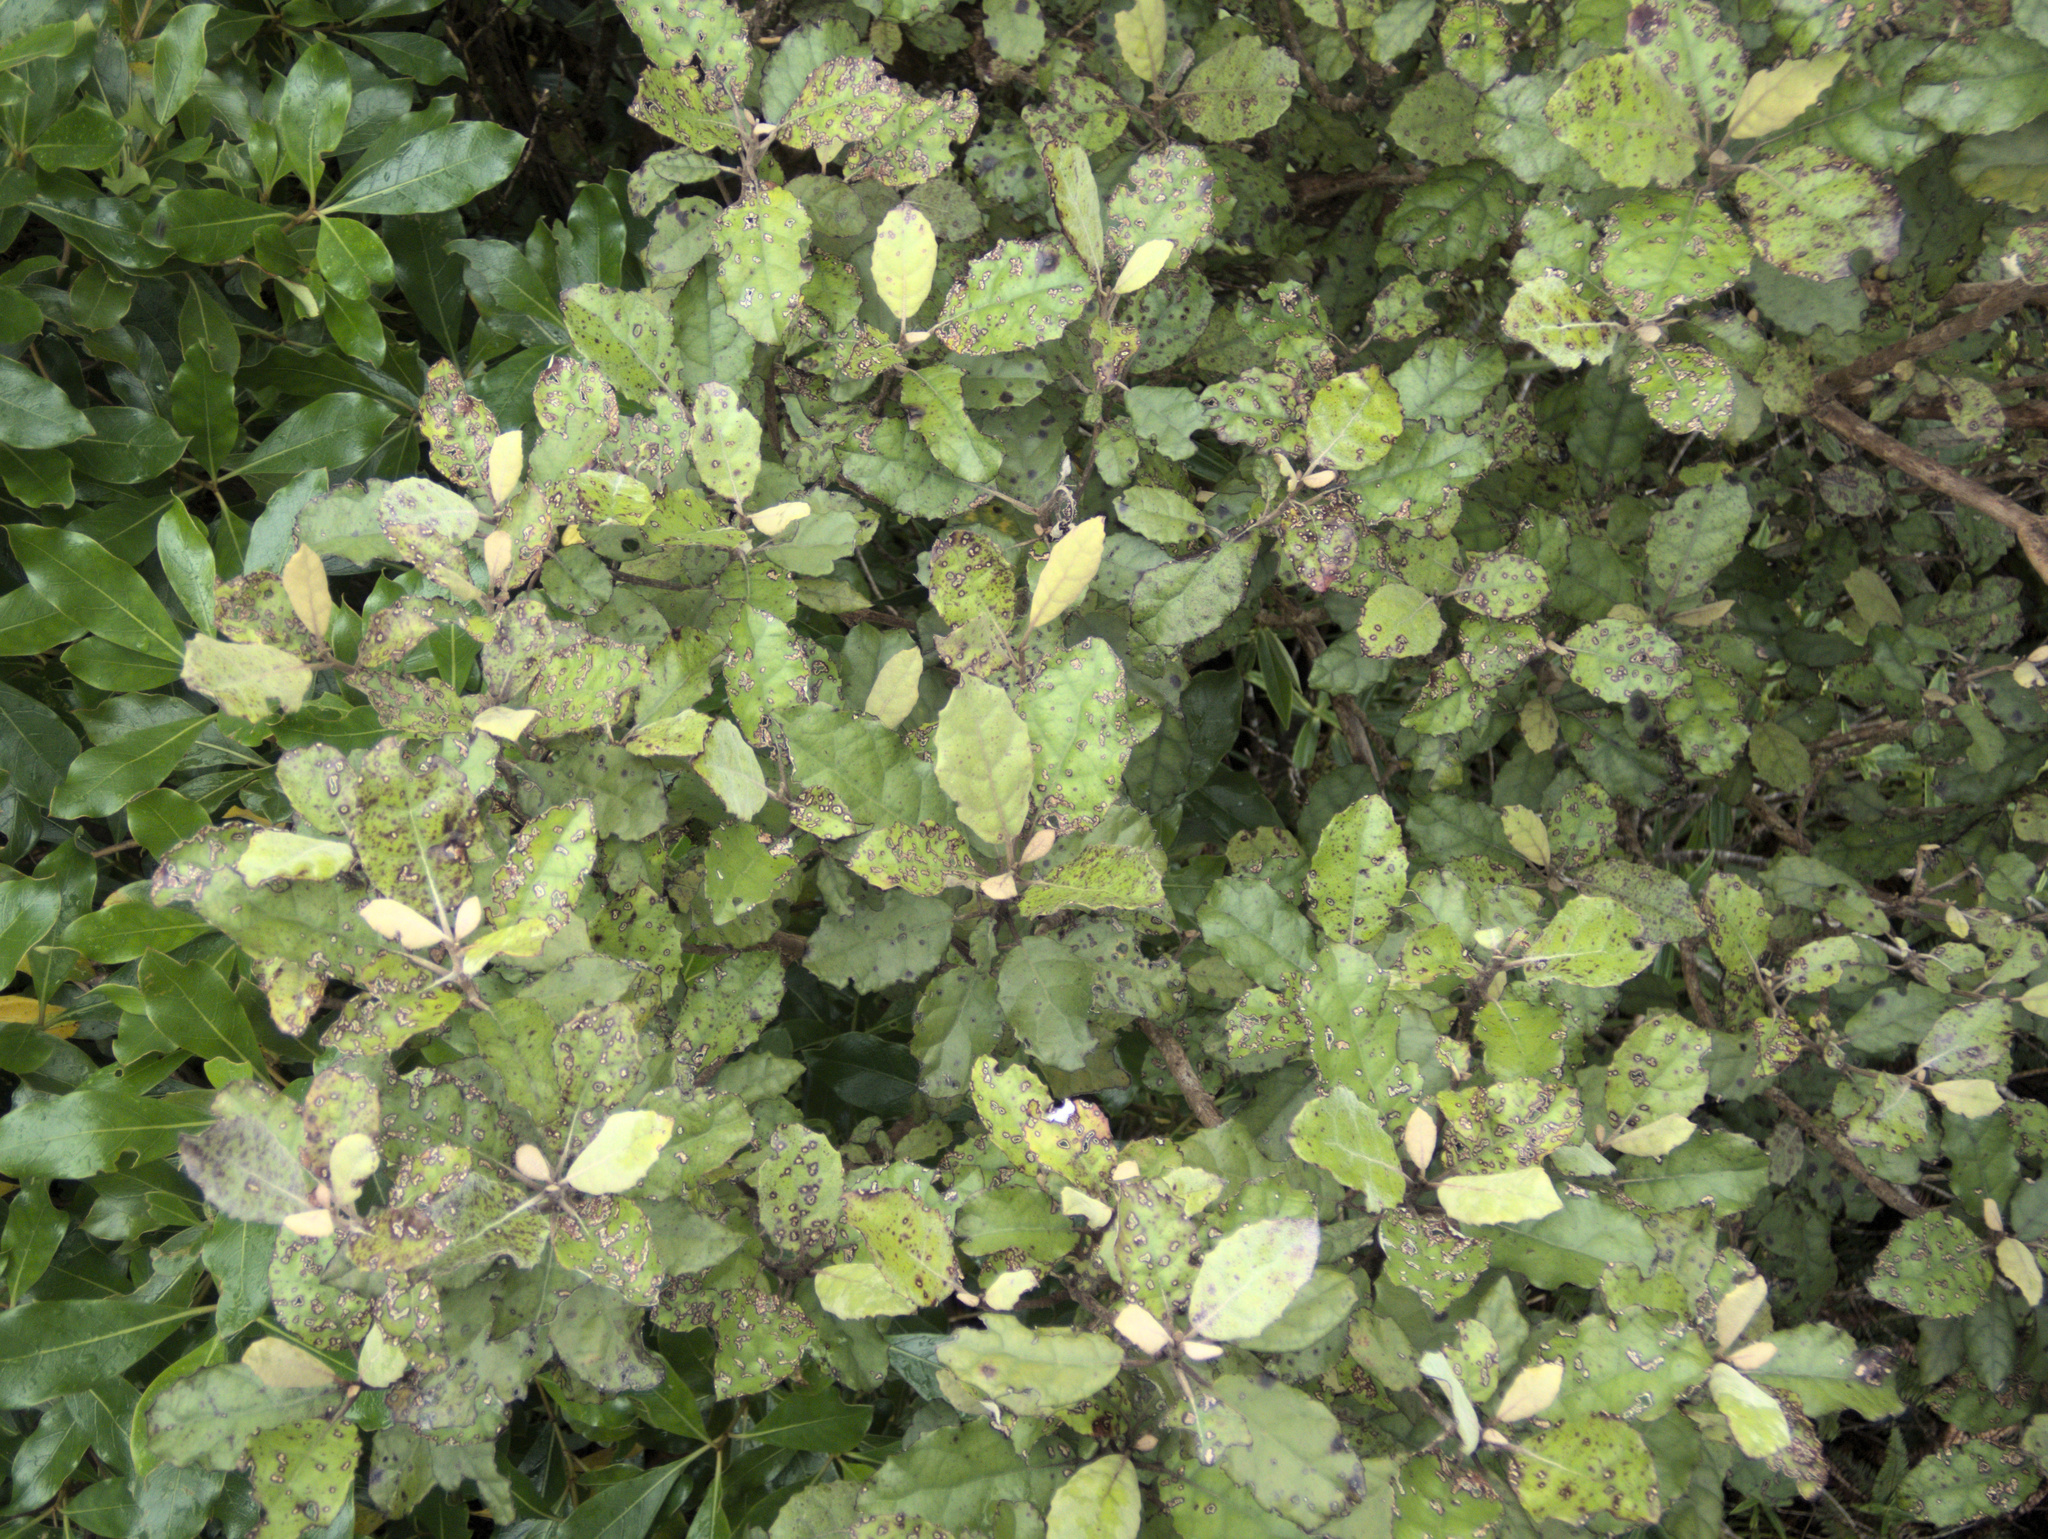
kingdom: Plantae
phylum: Tracheophyta
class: Magnoliopsida
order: Asterales
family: Asteraceae
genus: Olearia
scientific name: Olearia rani
